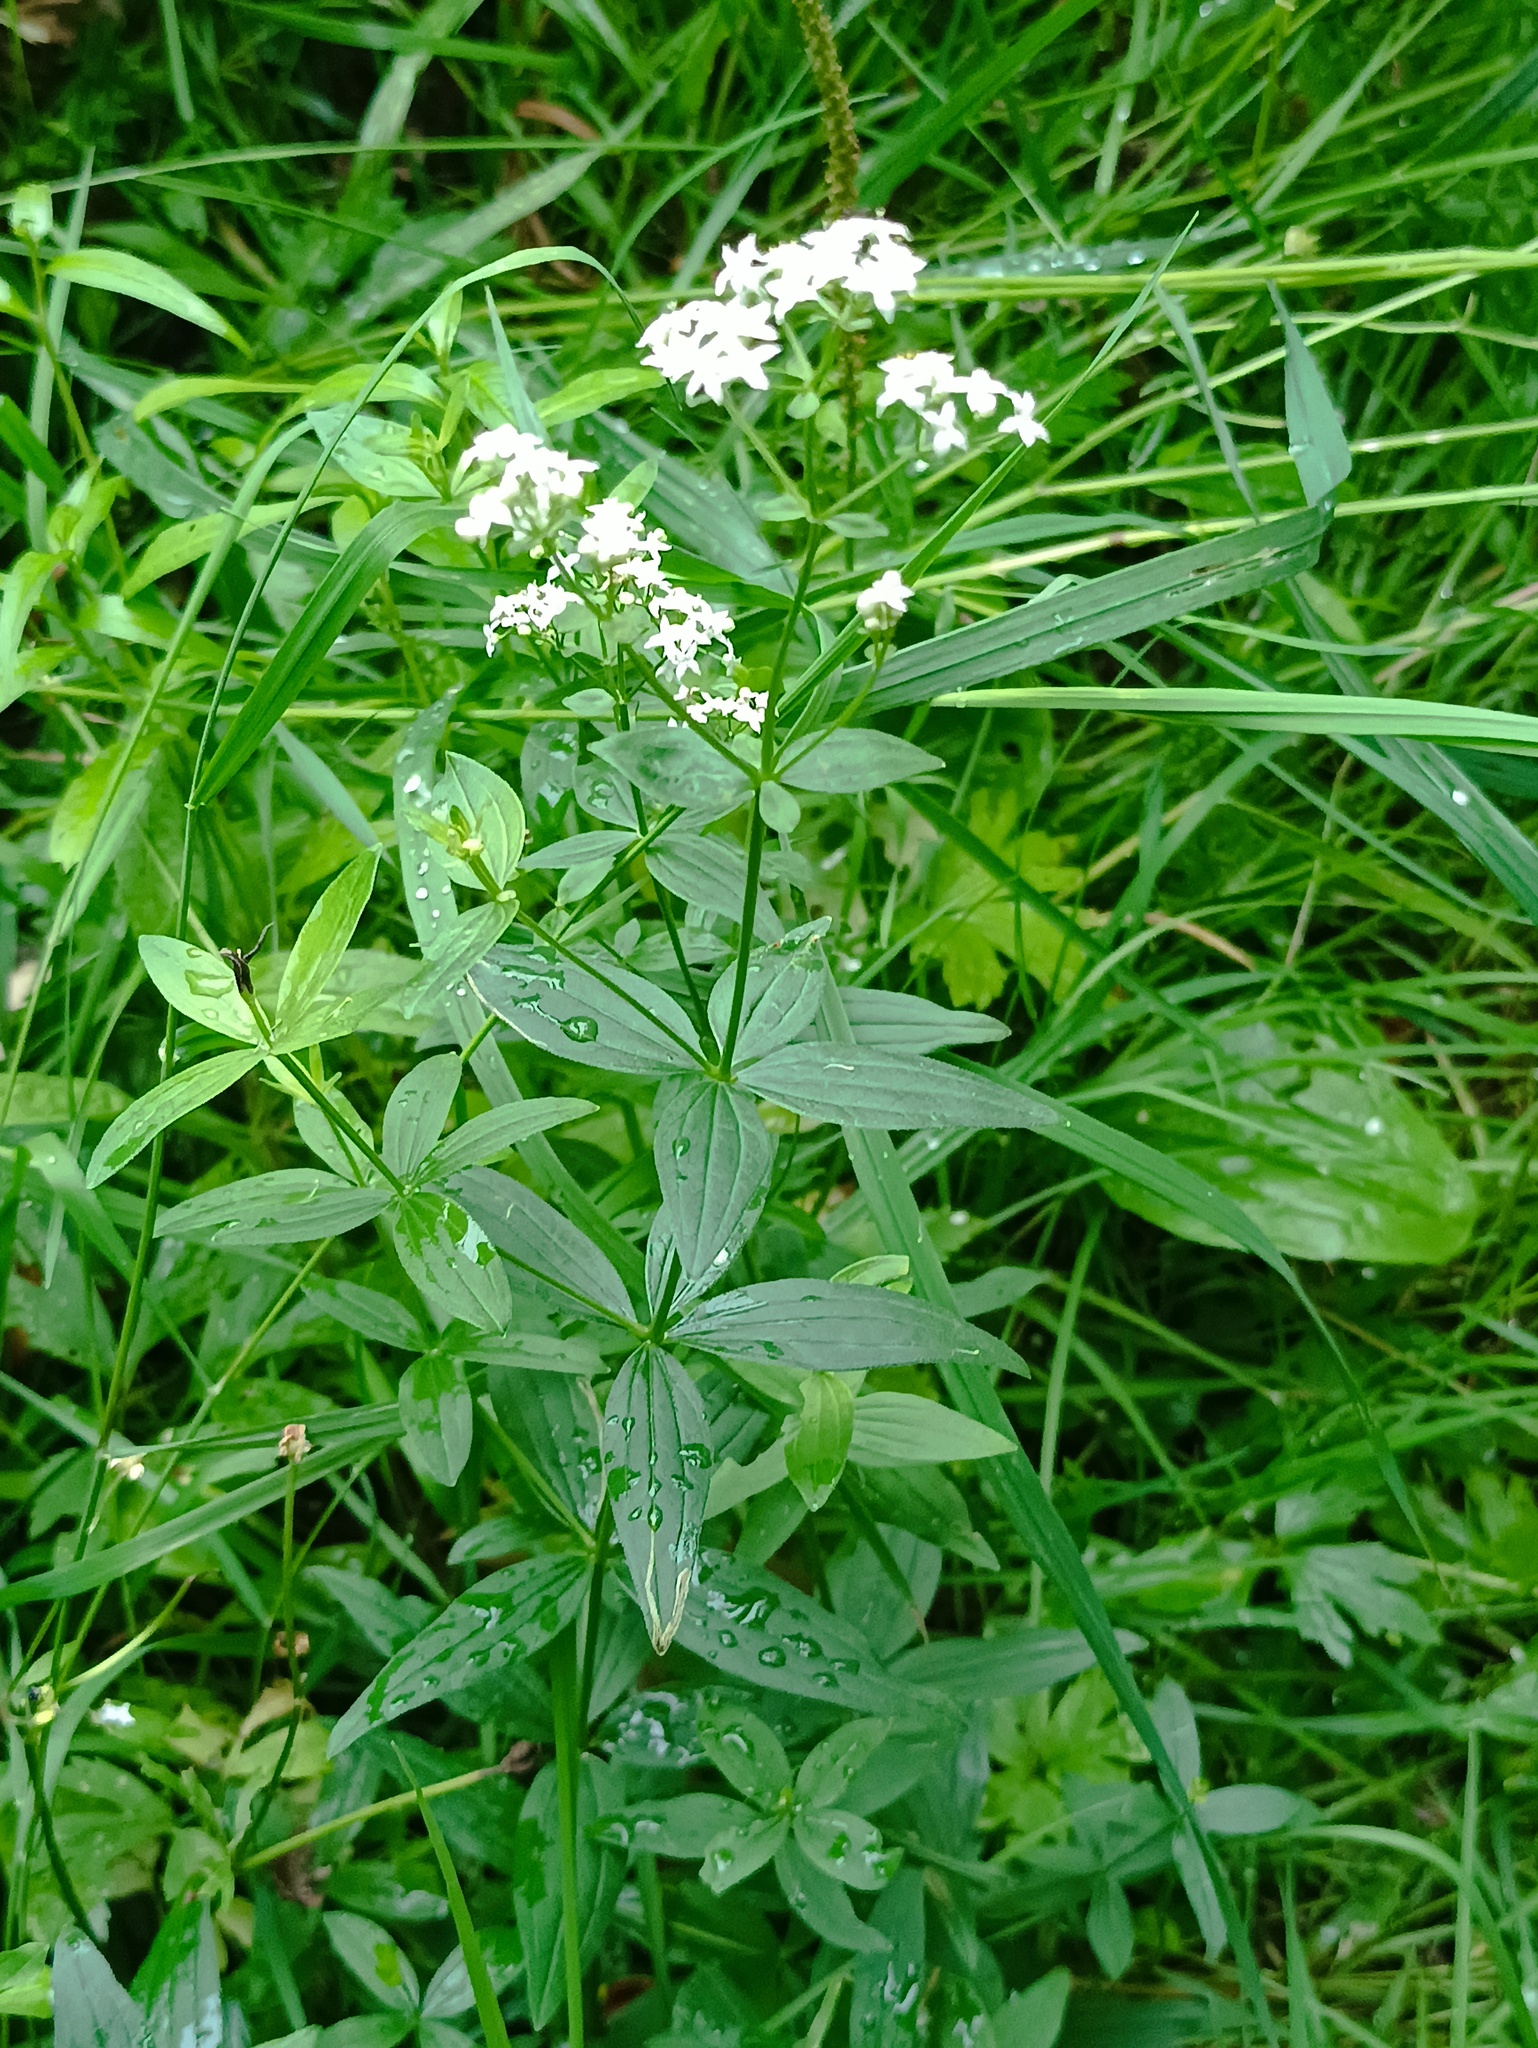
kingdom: Plantae
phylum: Tracheophyta
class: Magnoliopsida
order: Gentianales
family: Rubiaceae
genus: Galium
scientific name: Galium rubioides
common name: European bedstraw
